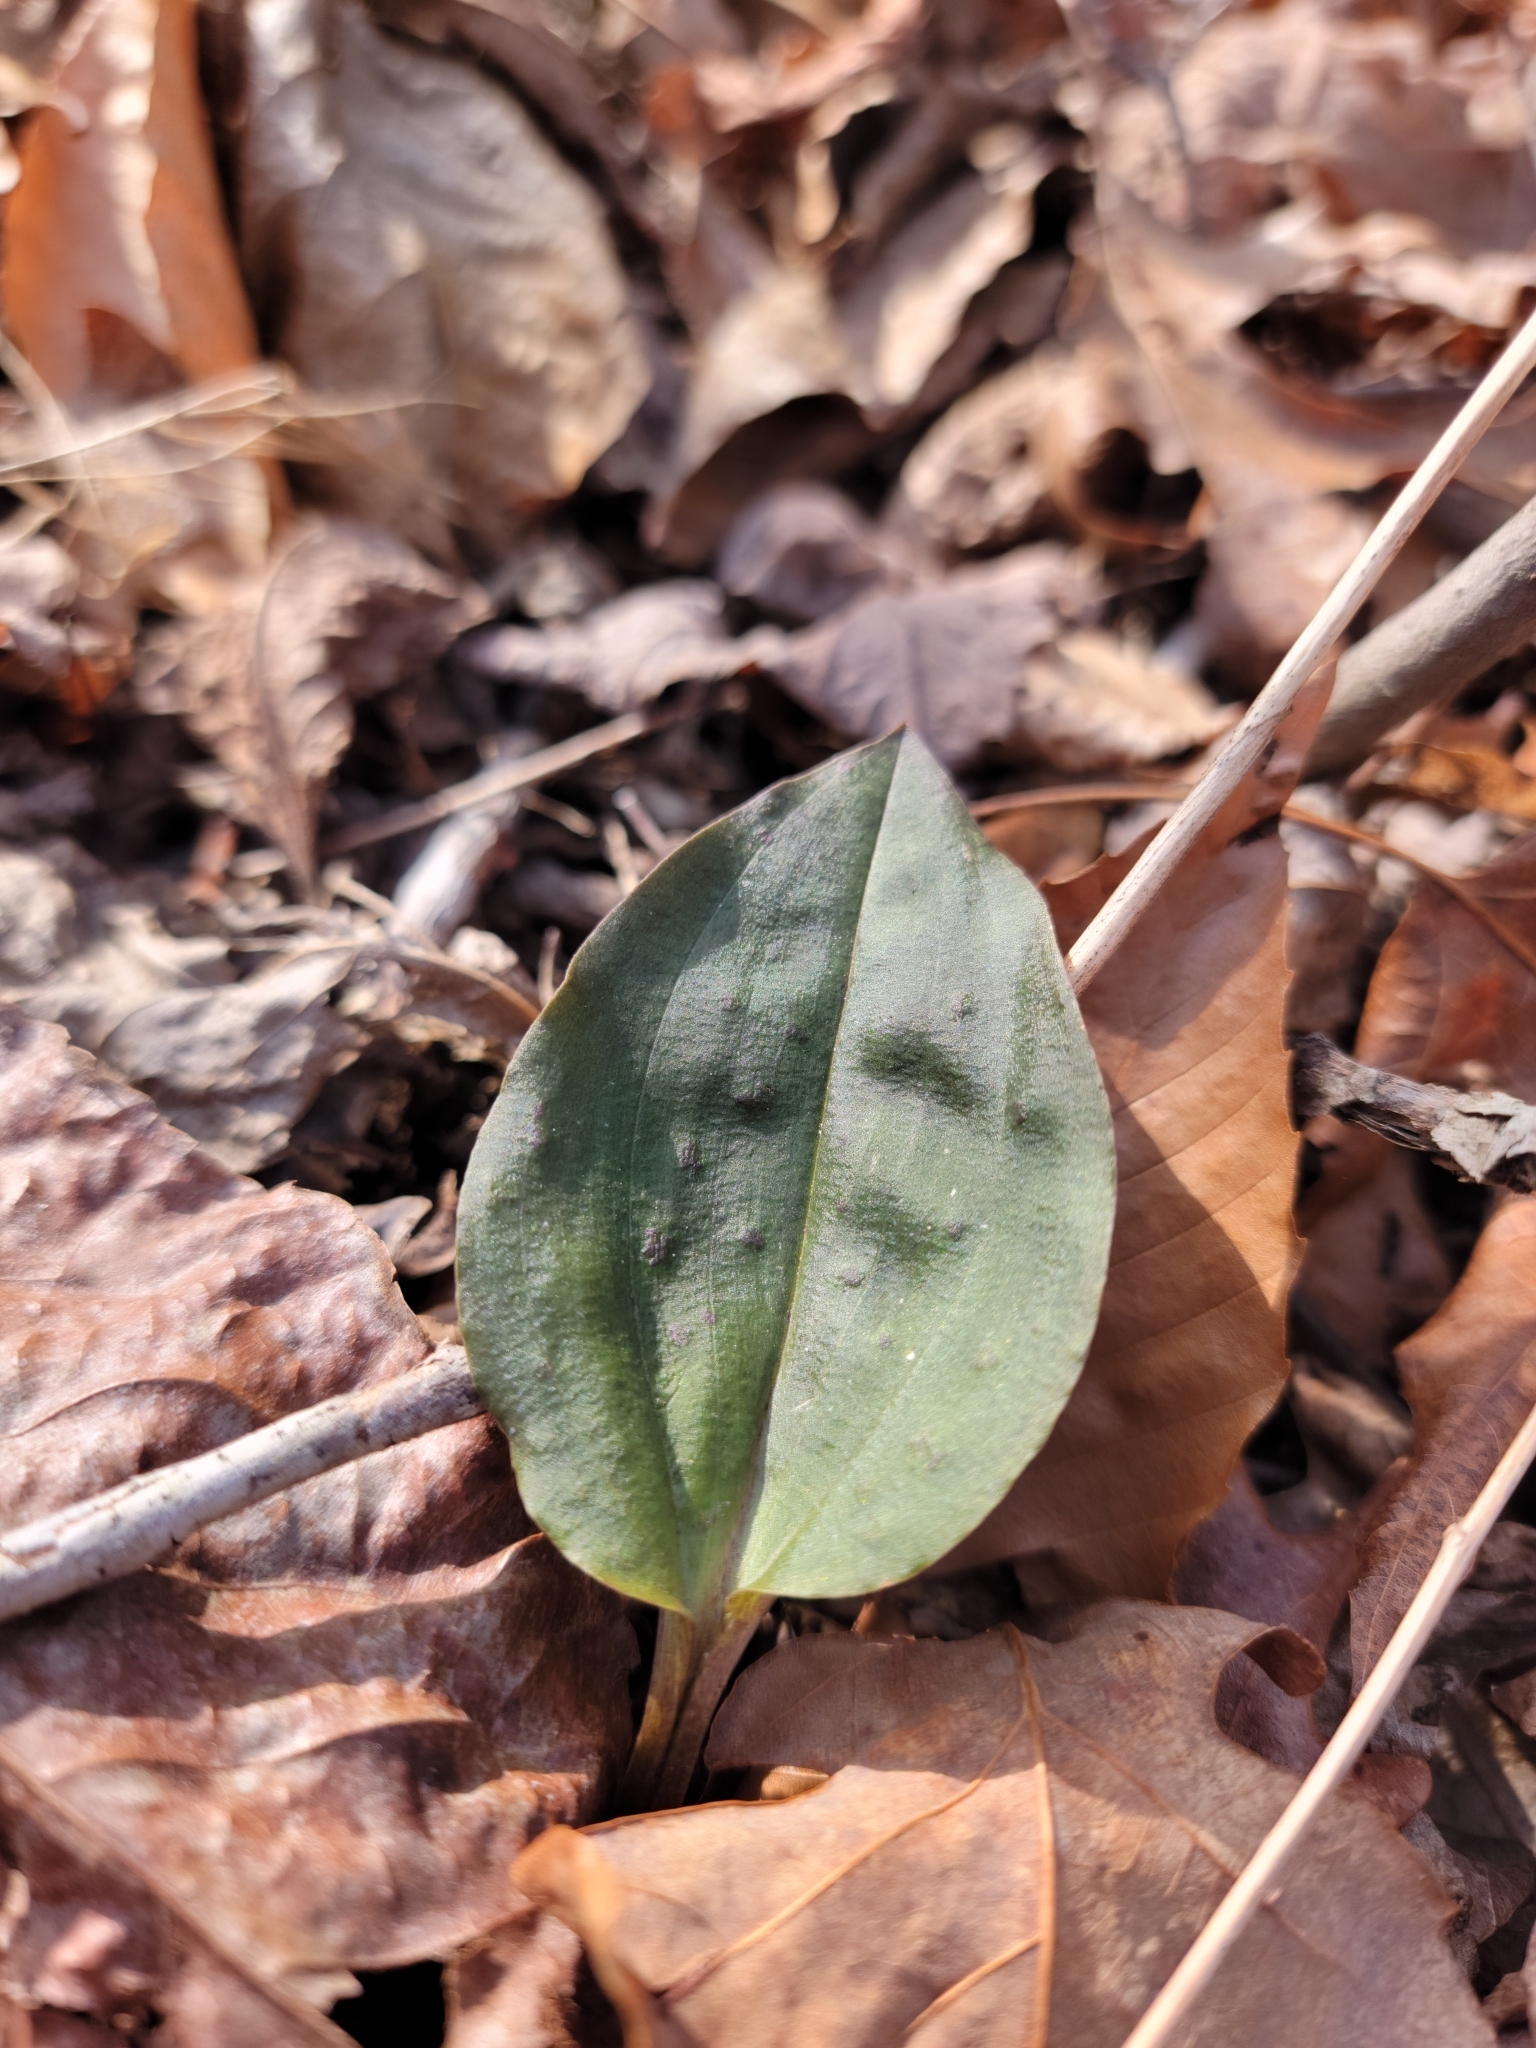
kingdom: Plantae
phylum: Tracheophyta
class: Liliopsida
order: Asparagales
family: Orchidaceae
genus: Tipularia
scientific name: Tipularia discolor
